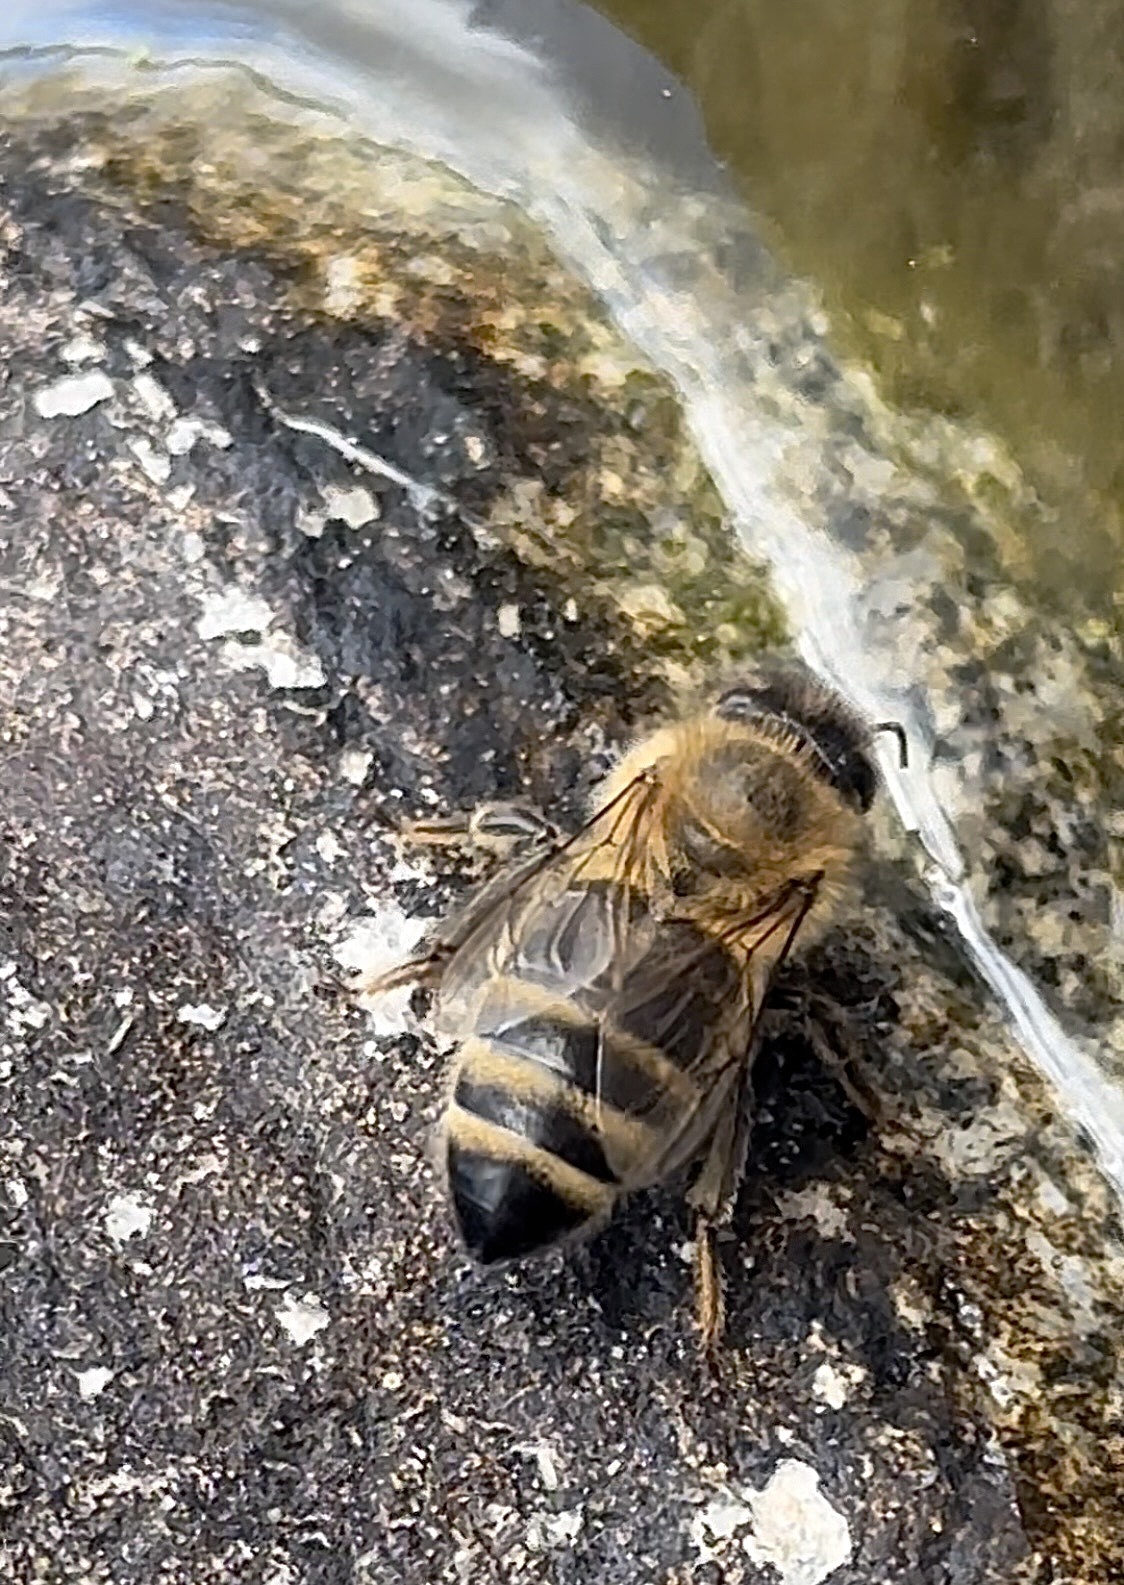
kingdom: Animalia
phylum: Arthropoda
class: Insecta
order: Hymenoptera
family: Apidae
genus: Apis
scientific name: Apis mellifera
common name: Honey bee
